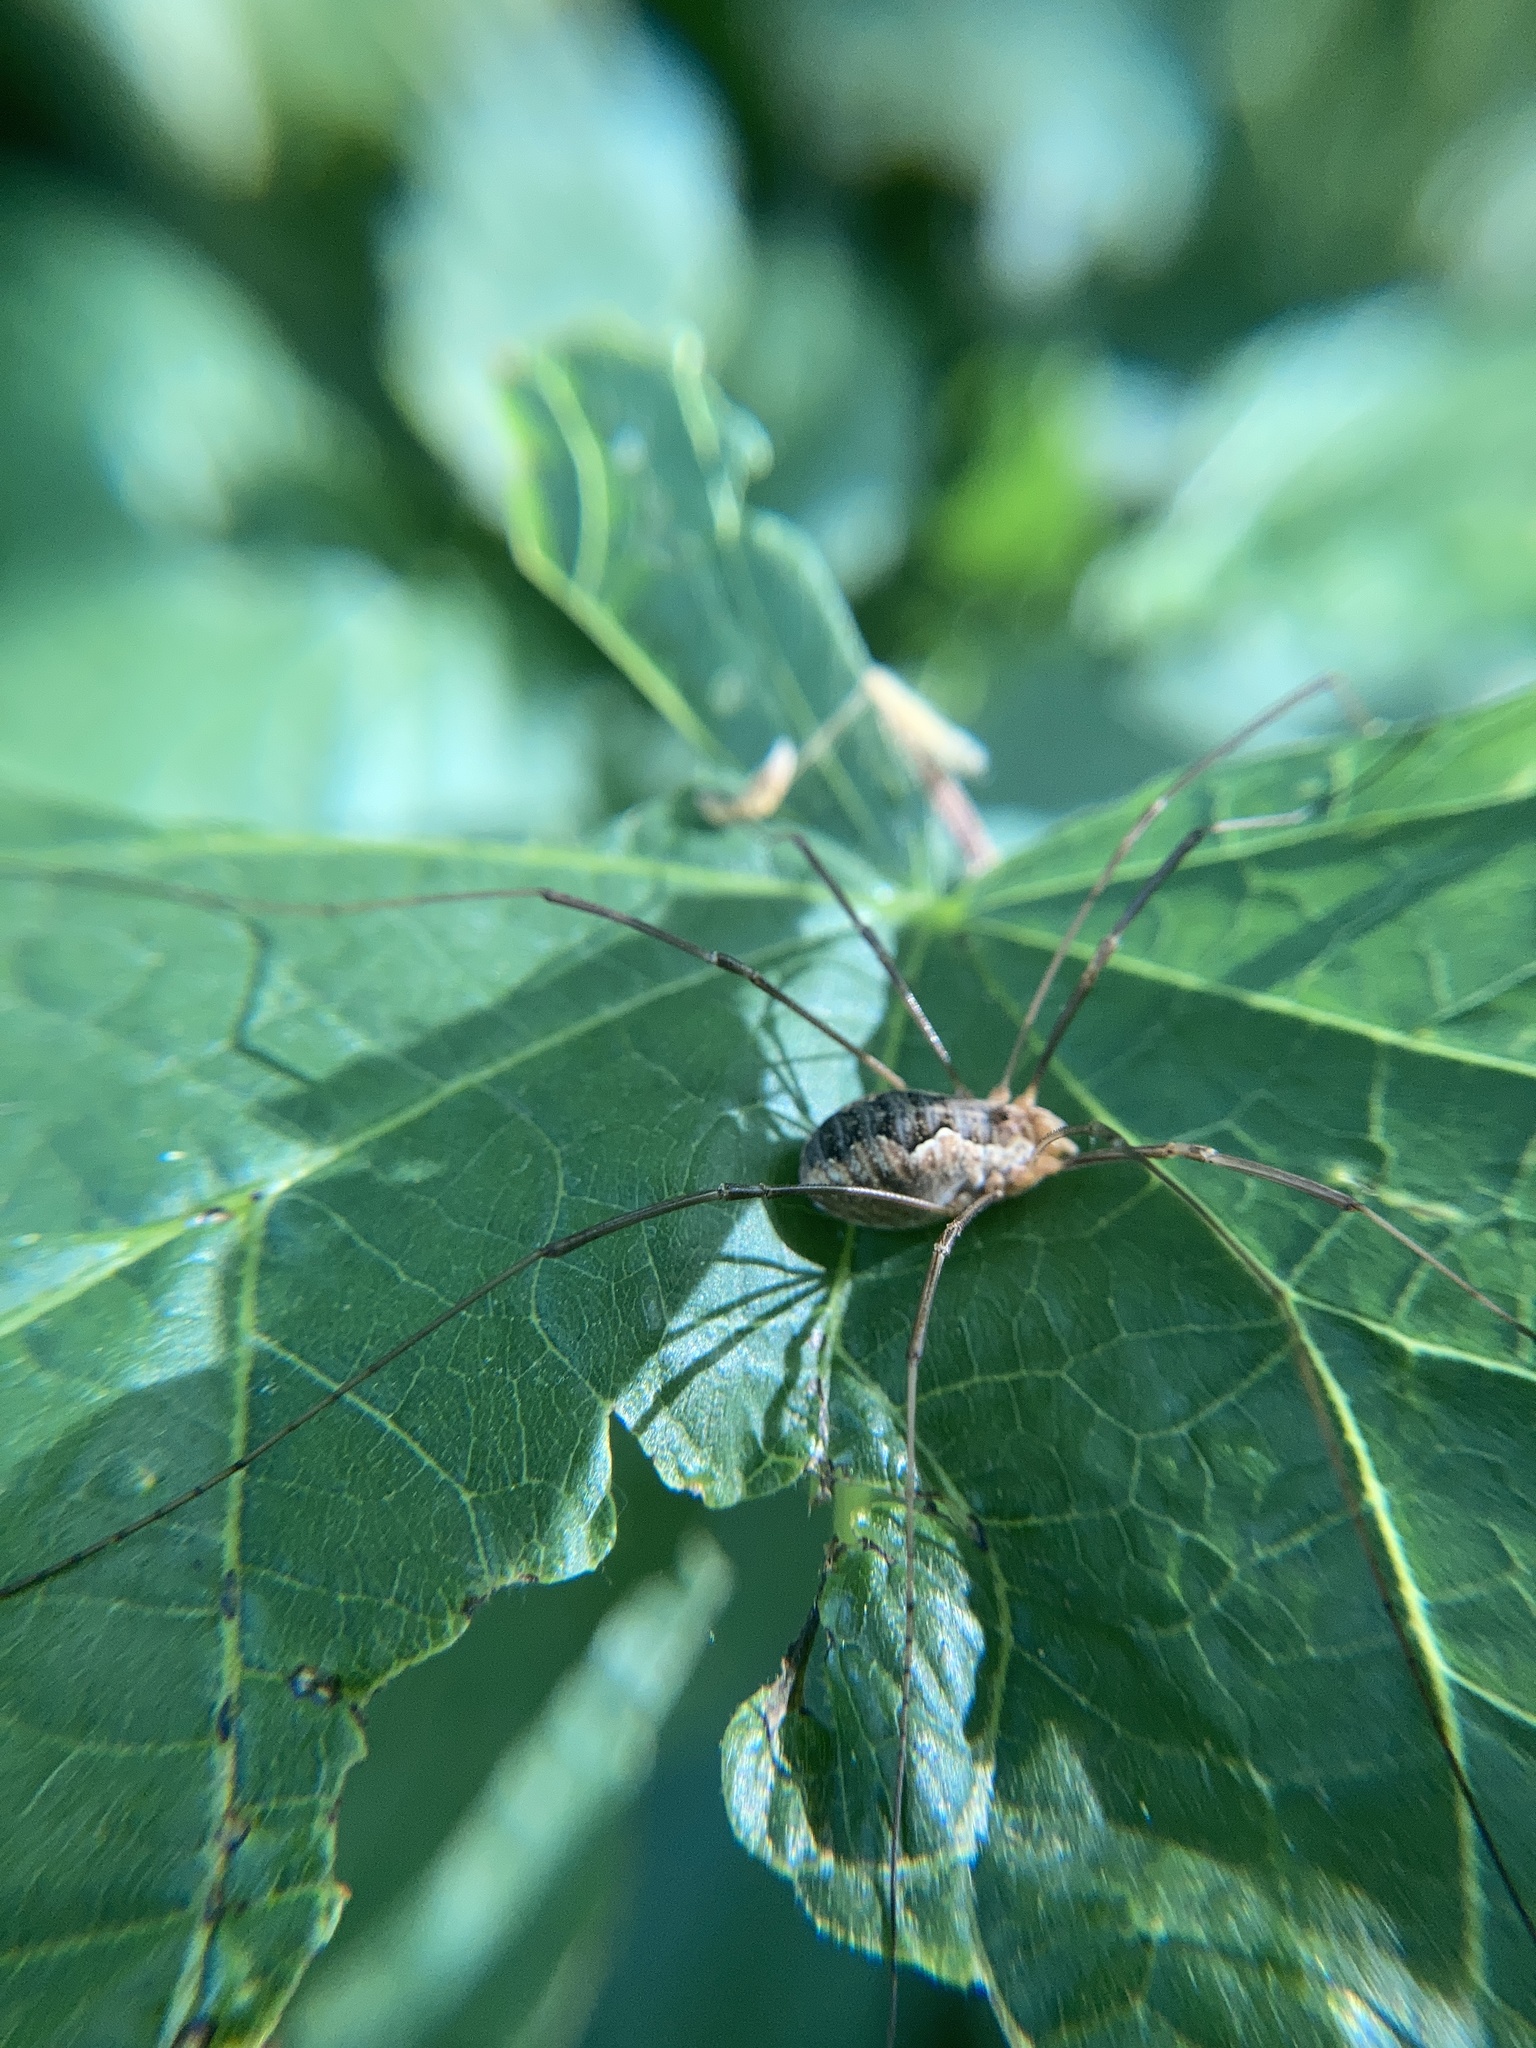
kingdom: Animalia
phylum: Arthropoda
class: Arachnida
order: Opiliones
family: Phalangiidae
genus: Phalangium
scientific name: Phalangium opilio
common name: Daddy longleg
